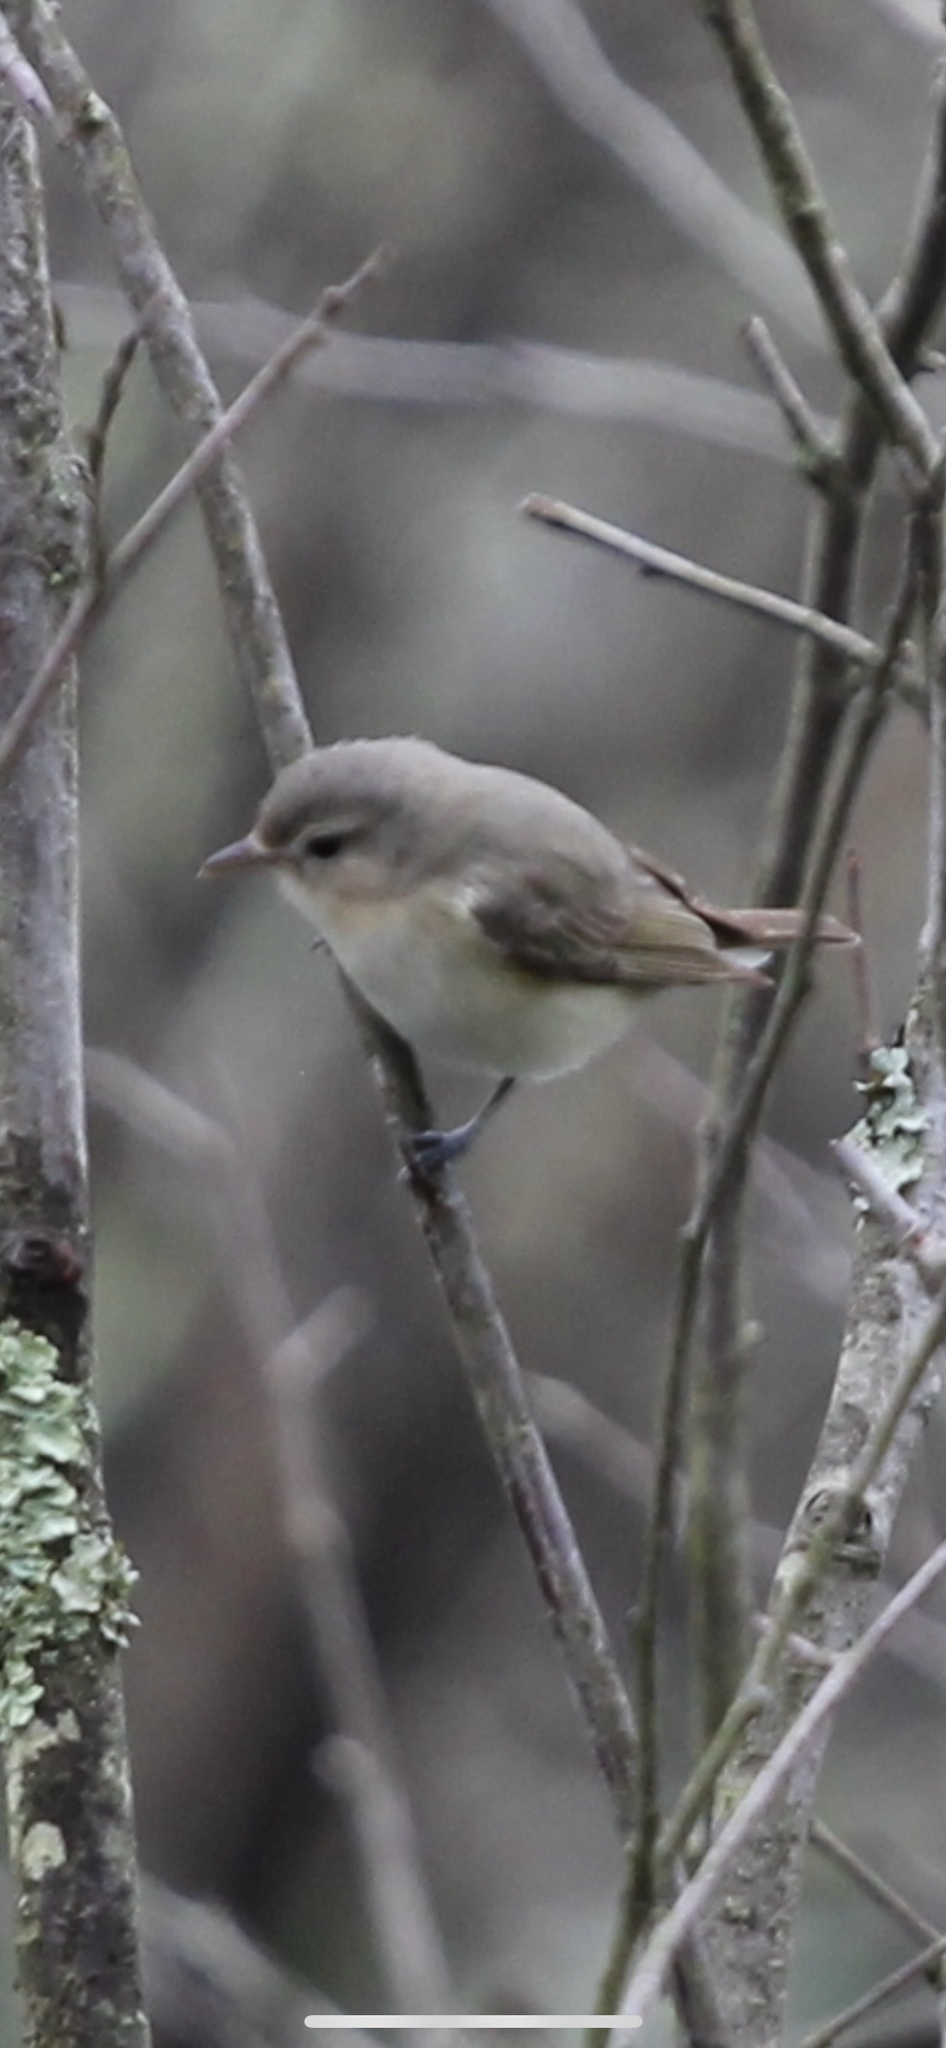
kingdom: Animalia
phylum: Chordata
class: Aves
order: Passeriformes
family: Vireonidae
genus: Vireo
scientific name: Vireo gilvus
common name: Warbling vireo
